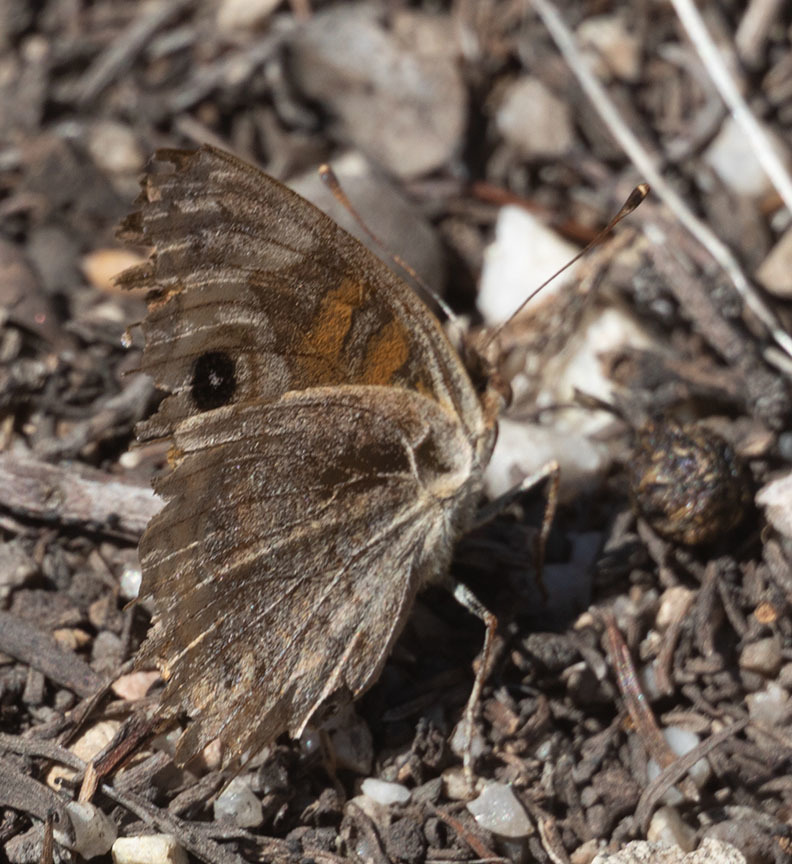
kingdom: Animalia
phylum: Arthropoda
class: Insecta
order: Lepidoptera
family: Nymphalidae
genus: Junonia
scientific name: Junonia grisea
